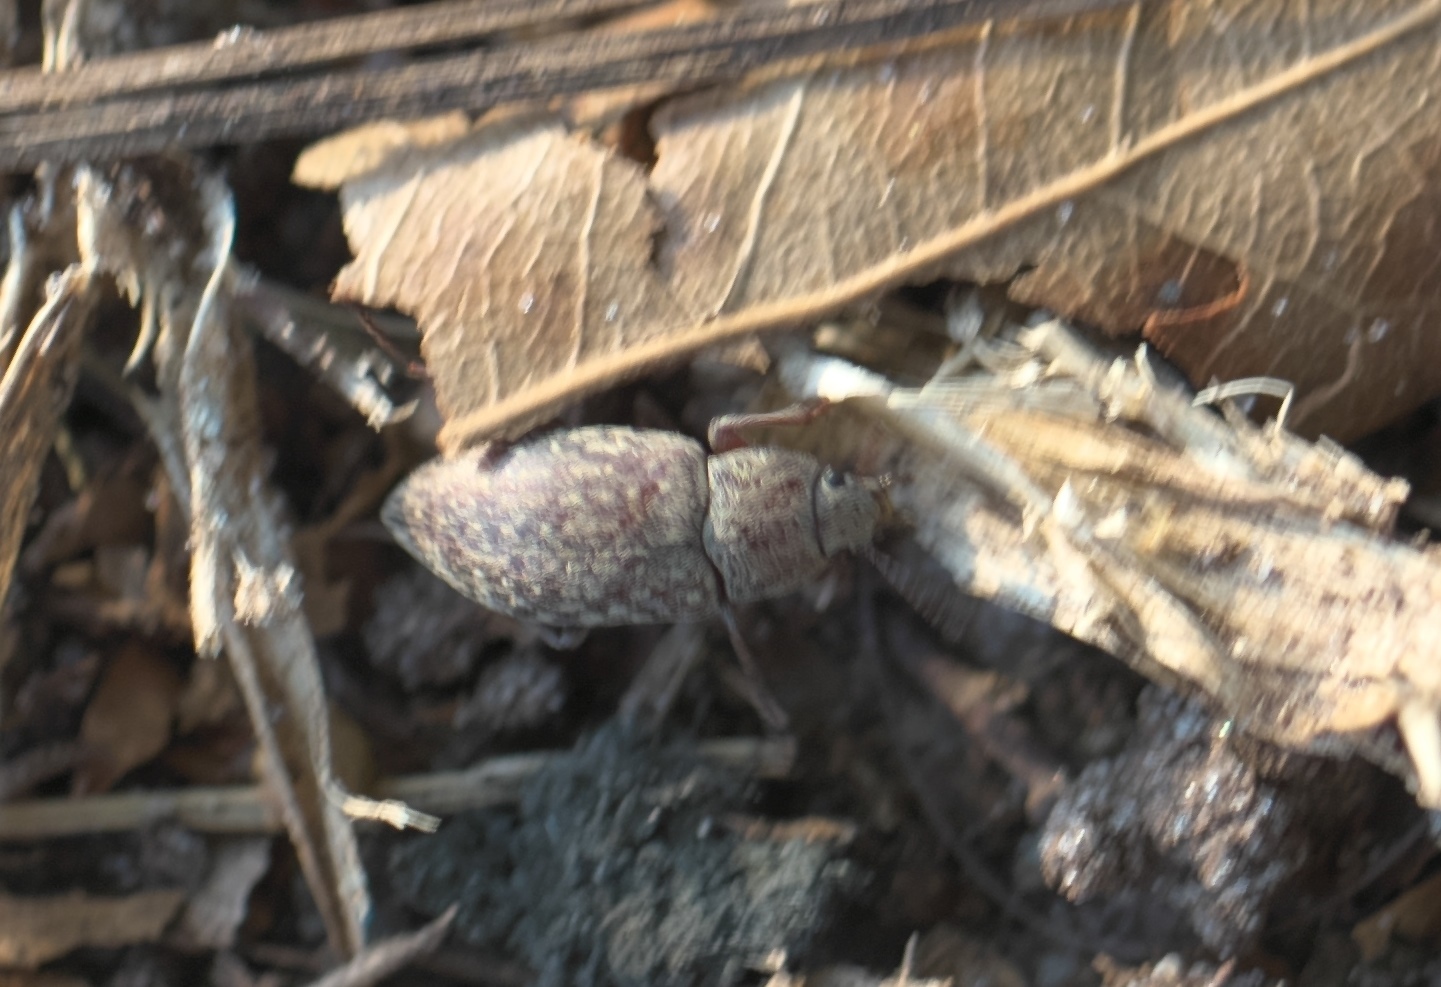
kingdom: Animalia
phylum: Arthropoda
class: Insecta
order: Coleoptera
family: Tenebrionidae
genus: Epitragodes
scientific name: Epitragodes tomentosus
